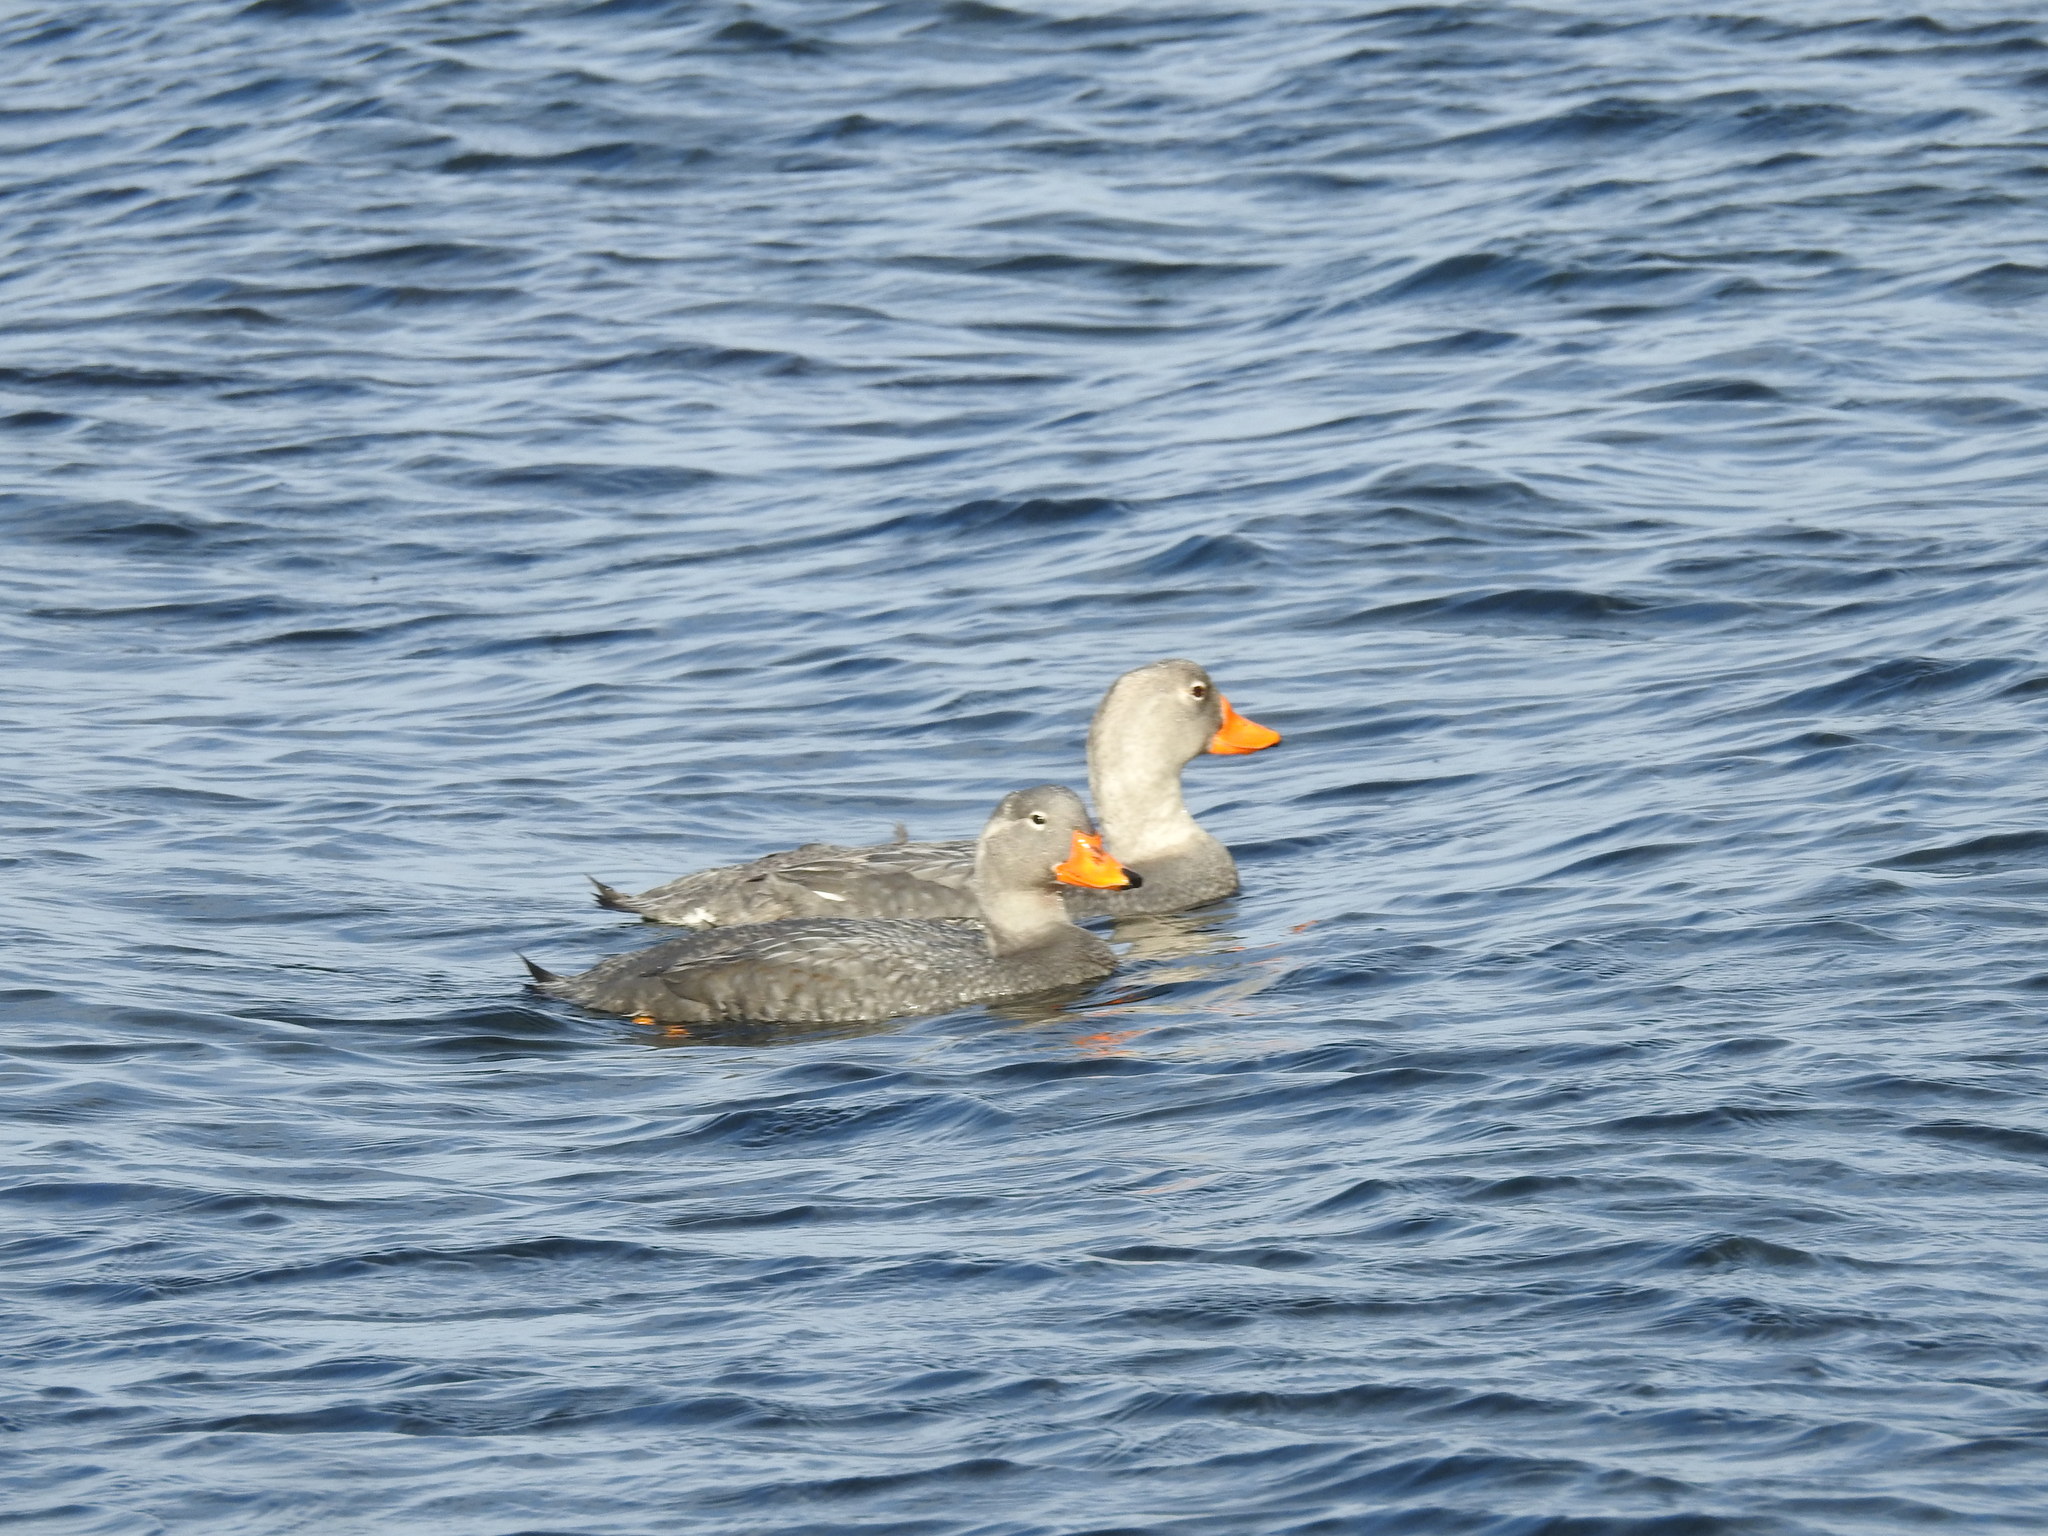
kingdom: Animalia
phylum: Chordata
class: Aves
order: Anseriformes
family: Anatidae
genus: Tachyeres
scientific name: Tachyeres pteneres
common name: Fuegian steamer duck
